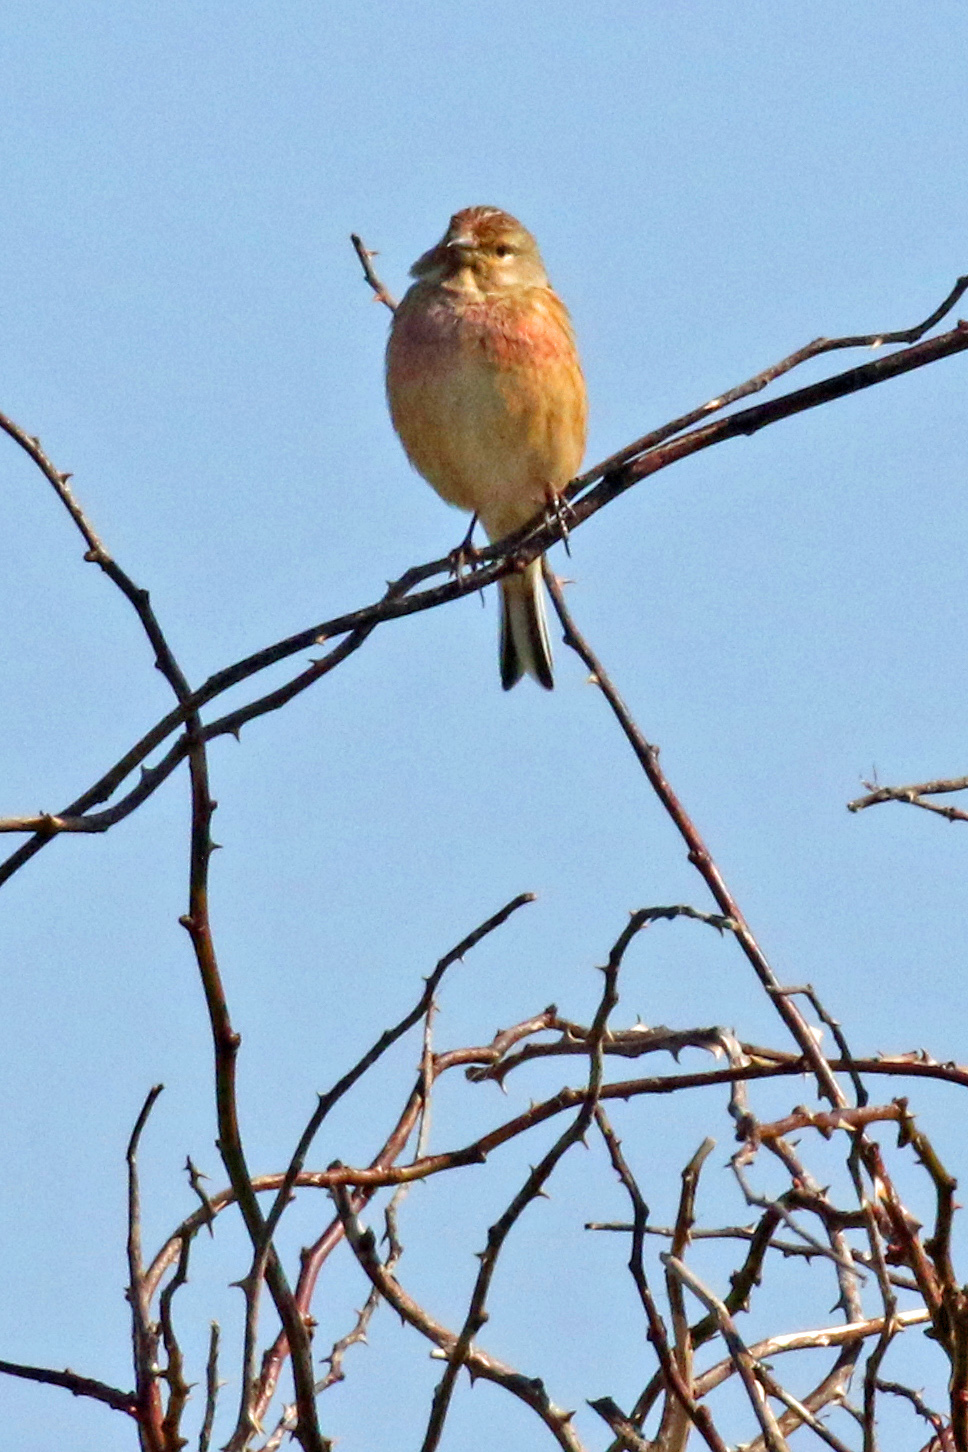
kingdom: Animalia
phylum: Chordata
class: Aves
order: Passeriformes
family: Fringillidae
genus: Linaria
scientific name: Linaria cannabina
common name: Common linnet
